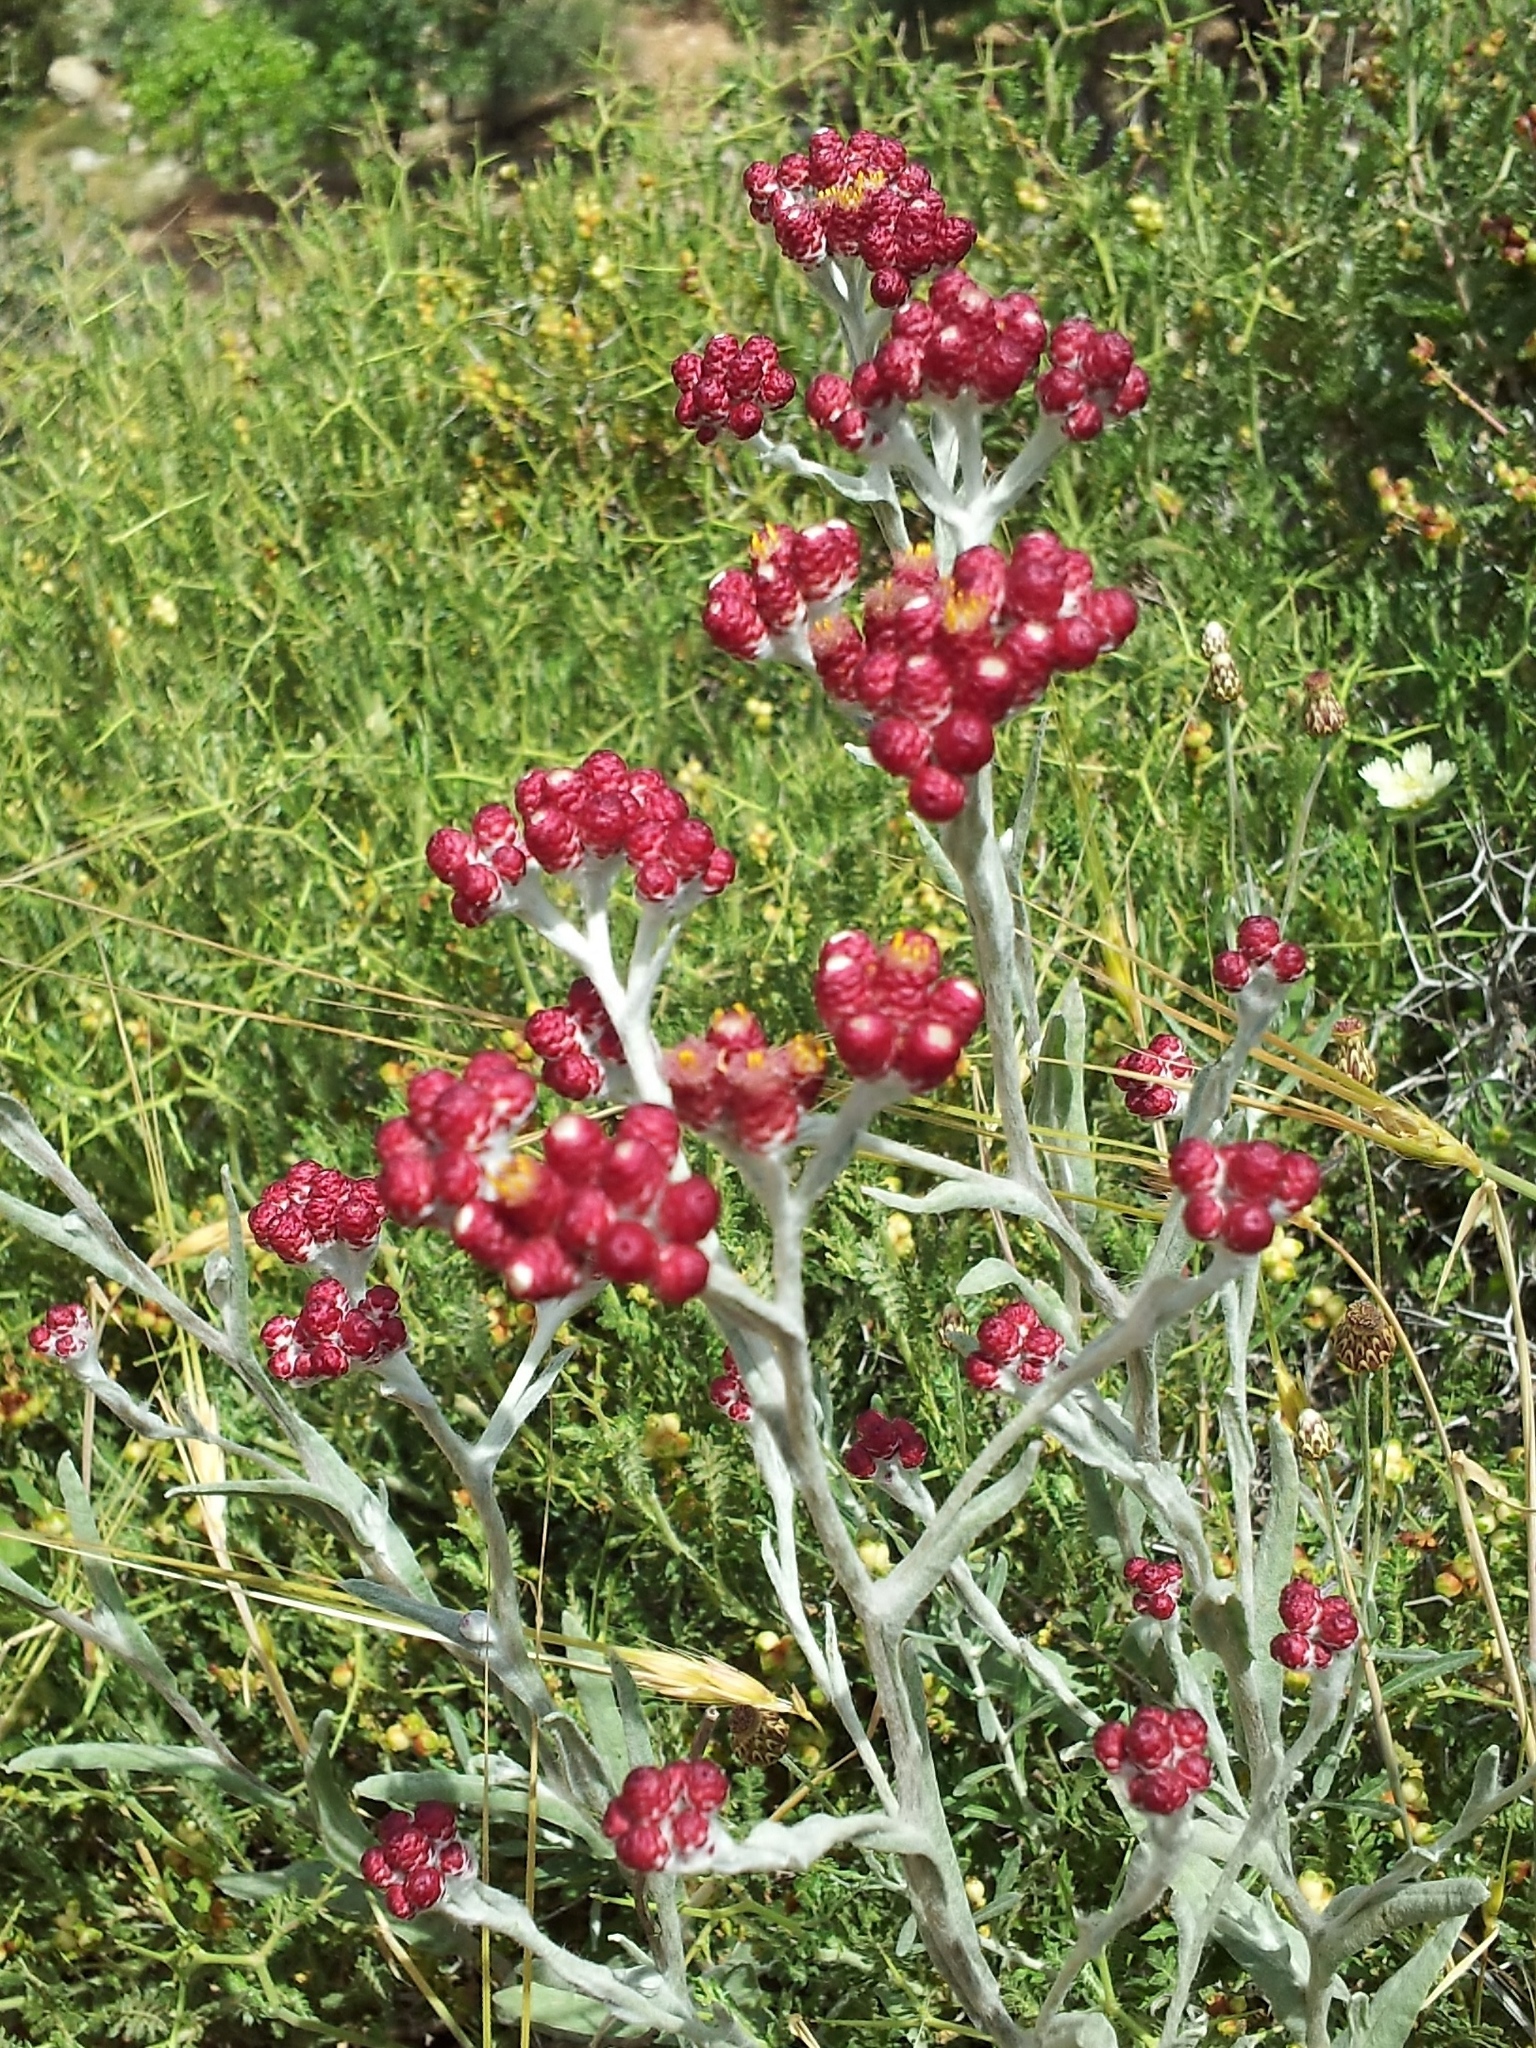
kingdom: Plantae
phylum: Tracheophyta
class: Magnoliopsida
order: Asterales
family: Asteraceae
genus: Helichrysum
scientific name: Helichrysum sanguineum
